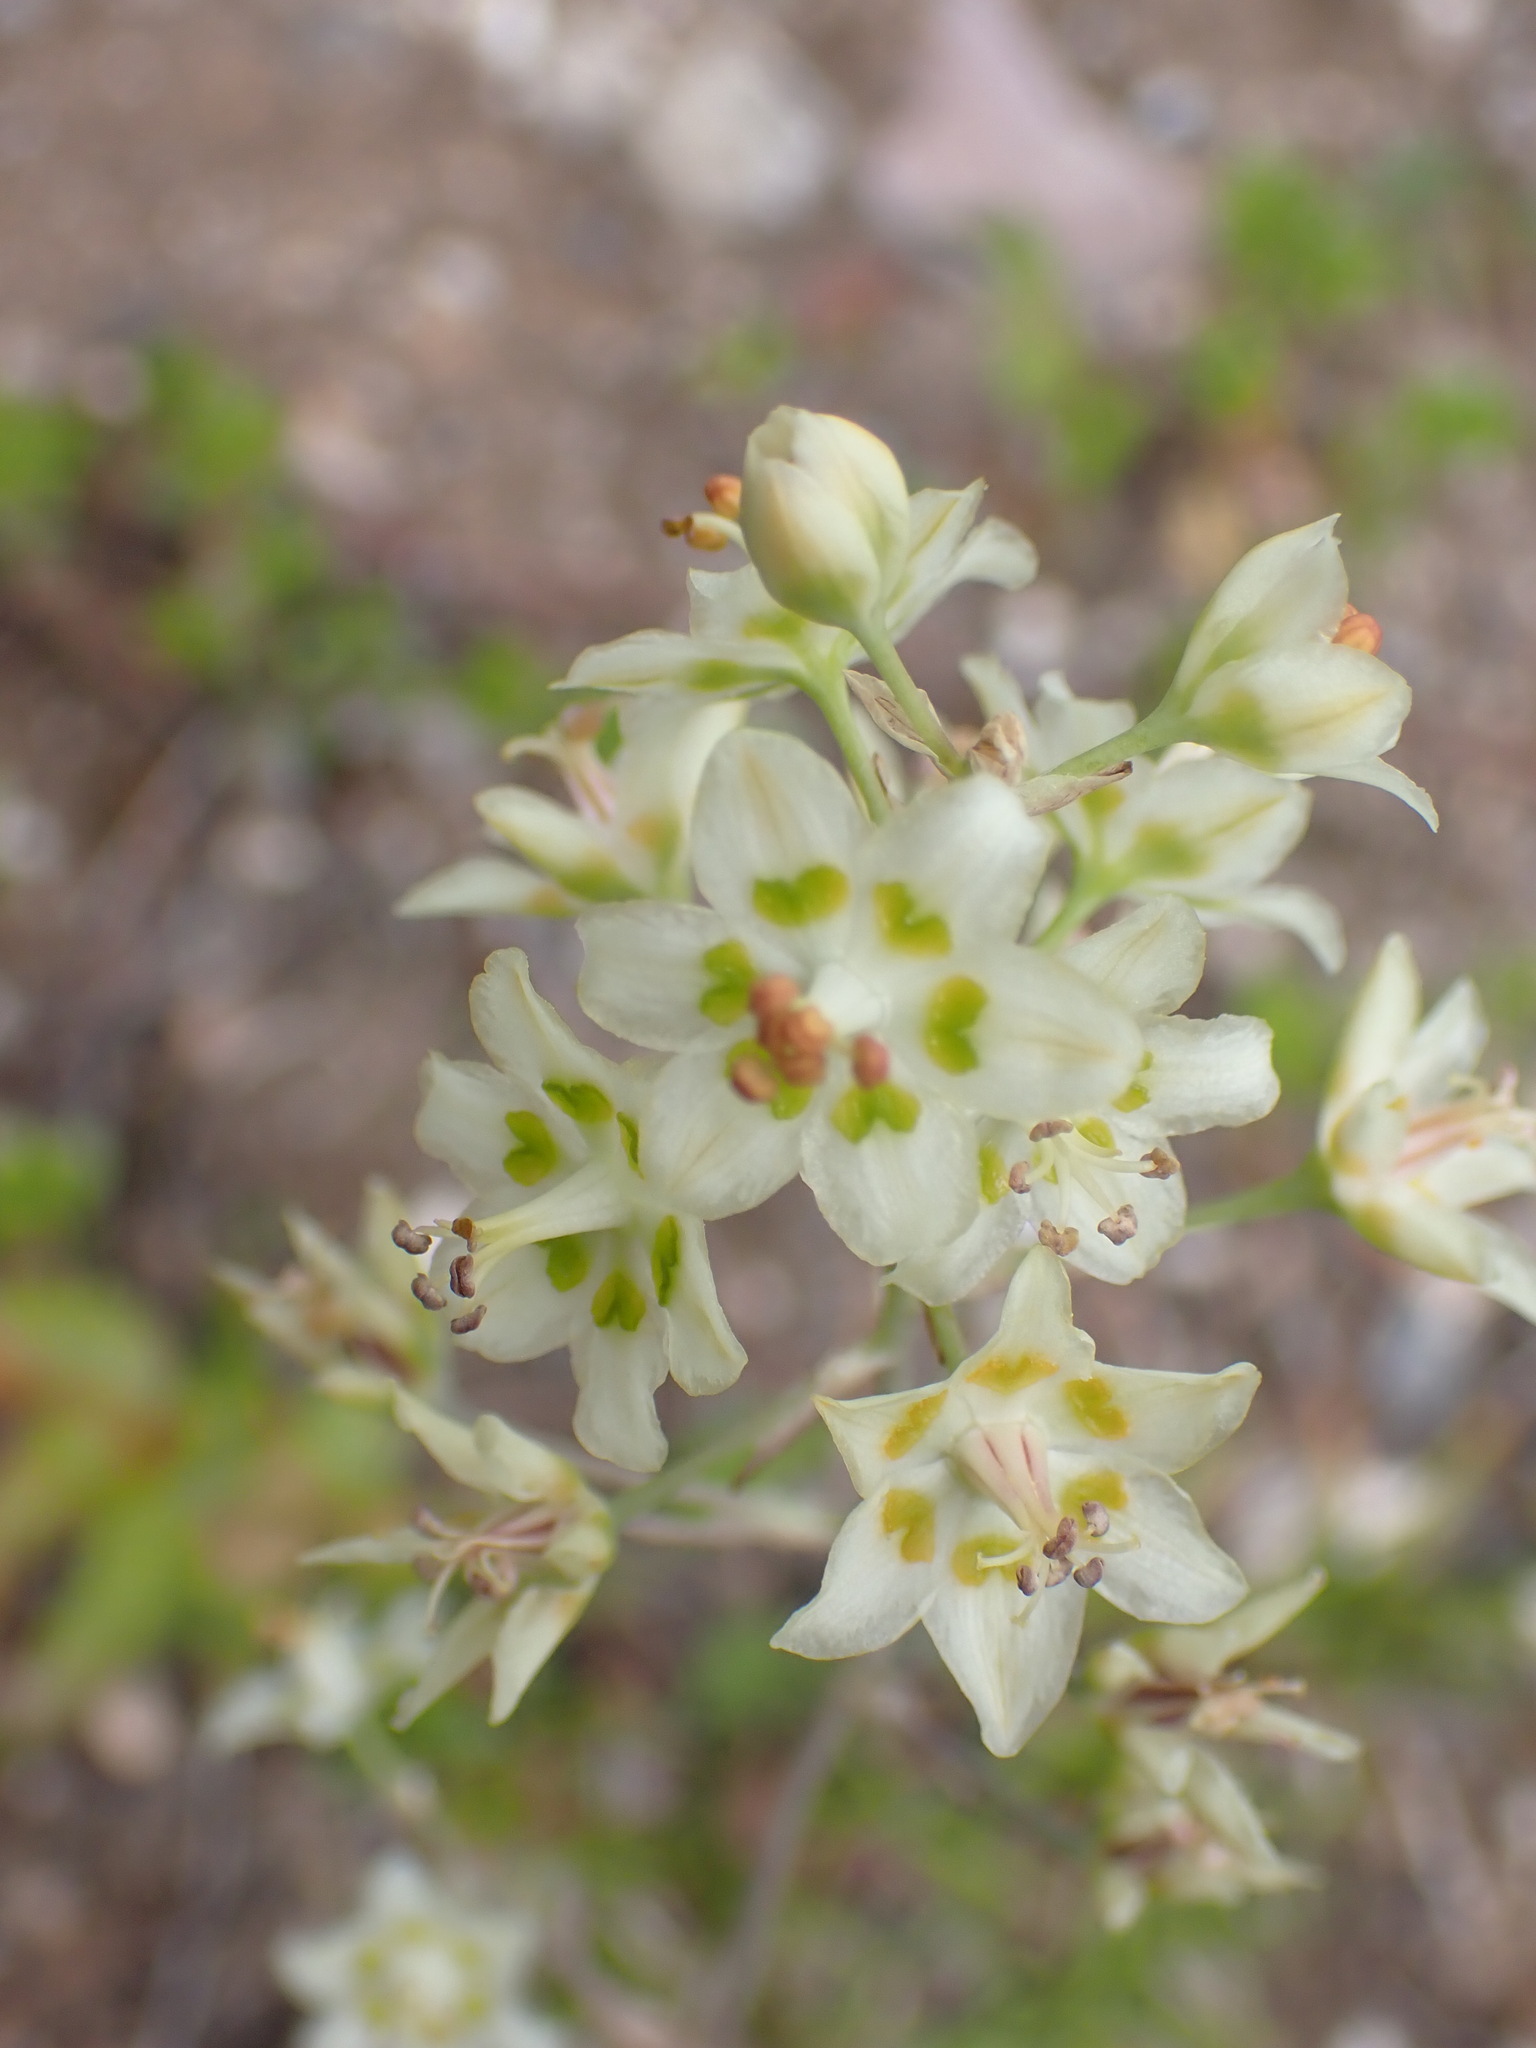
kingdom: Plantae
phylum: Tracheophyta
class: Liliopsida
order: Liliales
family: Melanthiaceae
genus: Anticlea
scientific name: Anticlea elegans
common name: Mountain death camas
